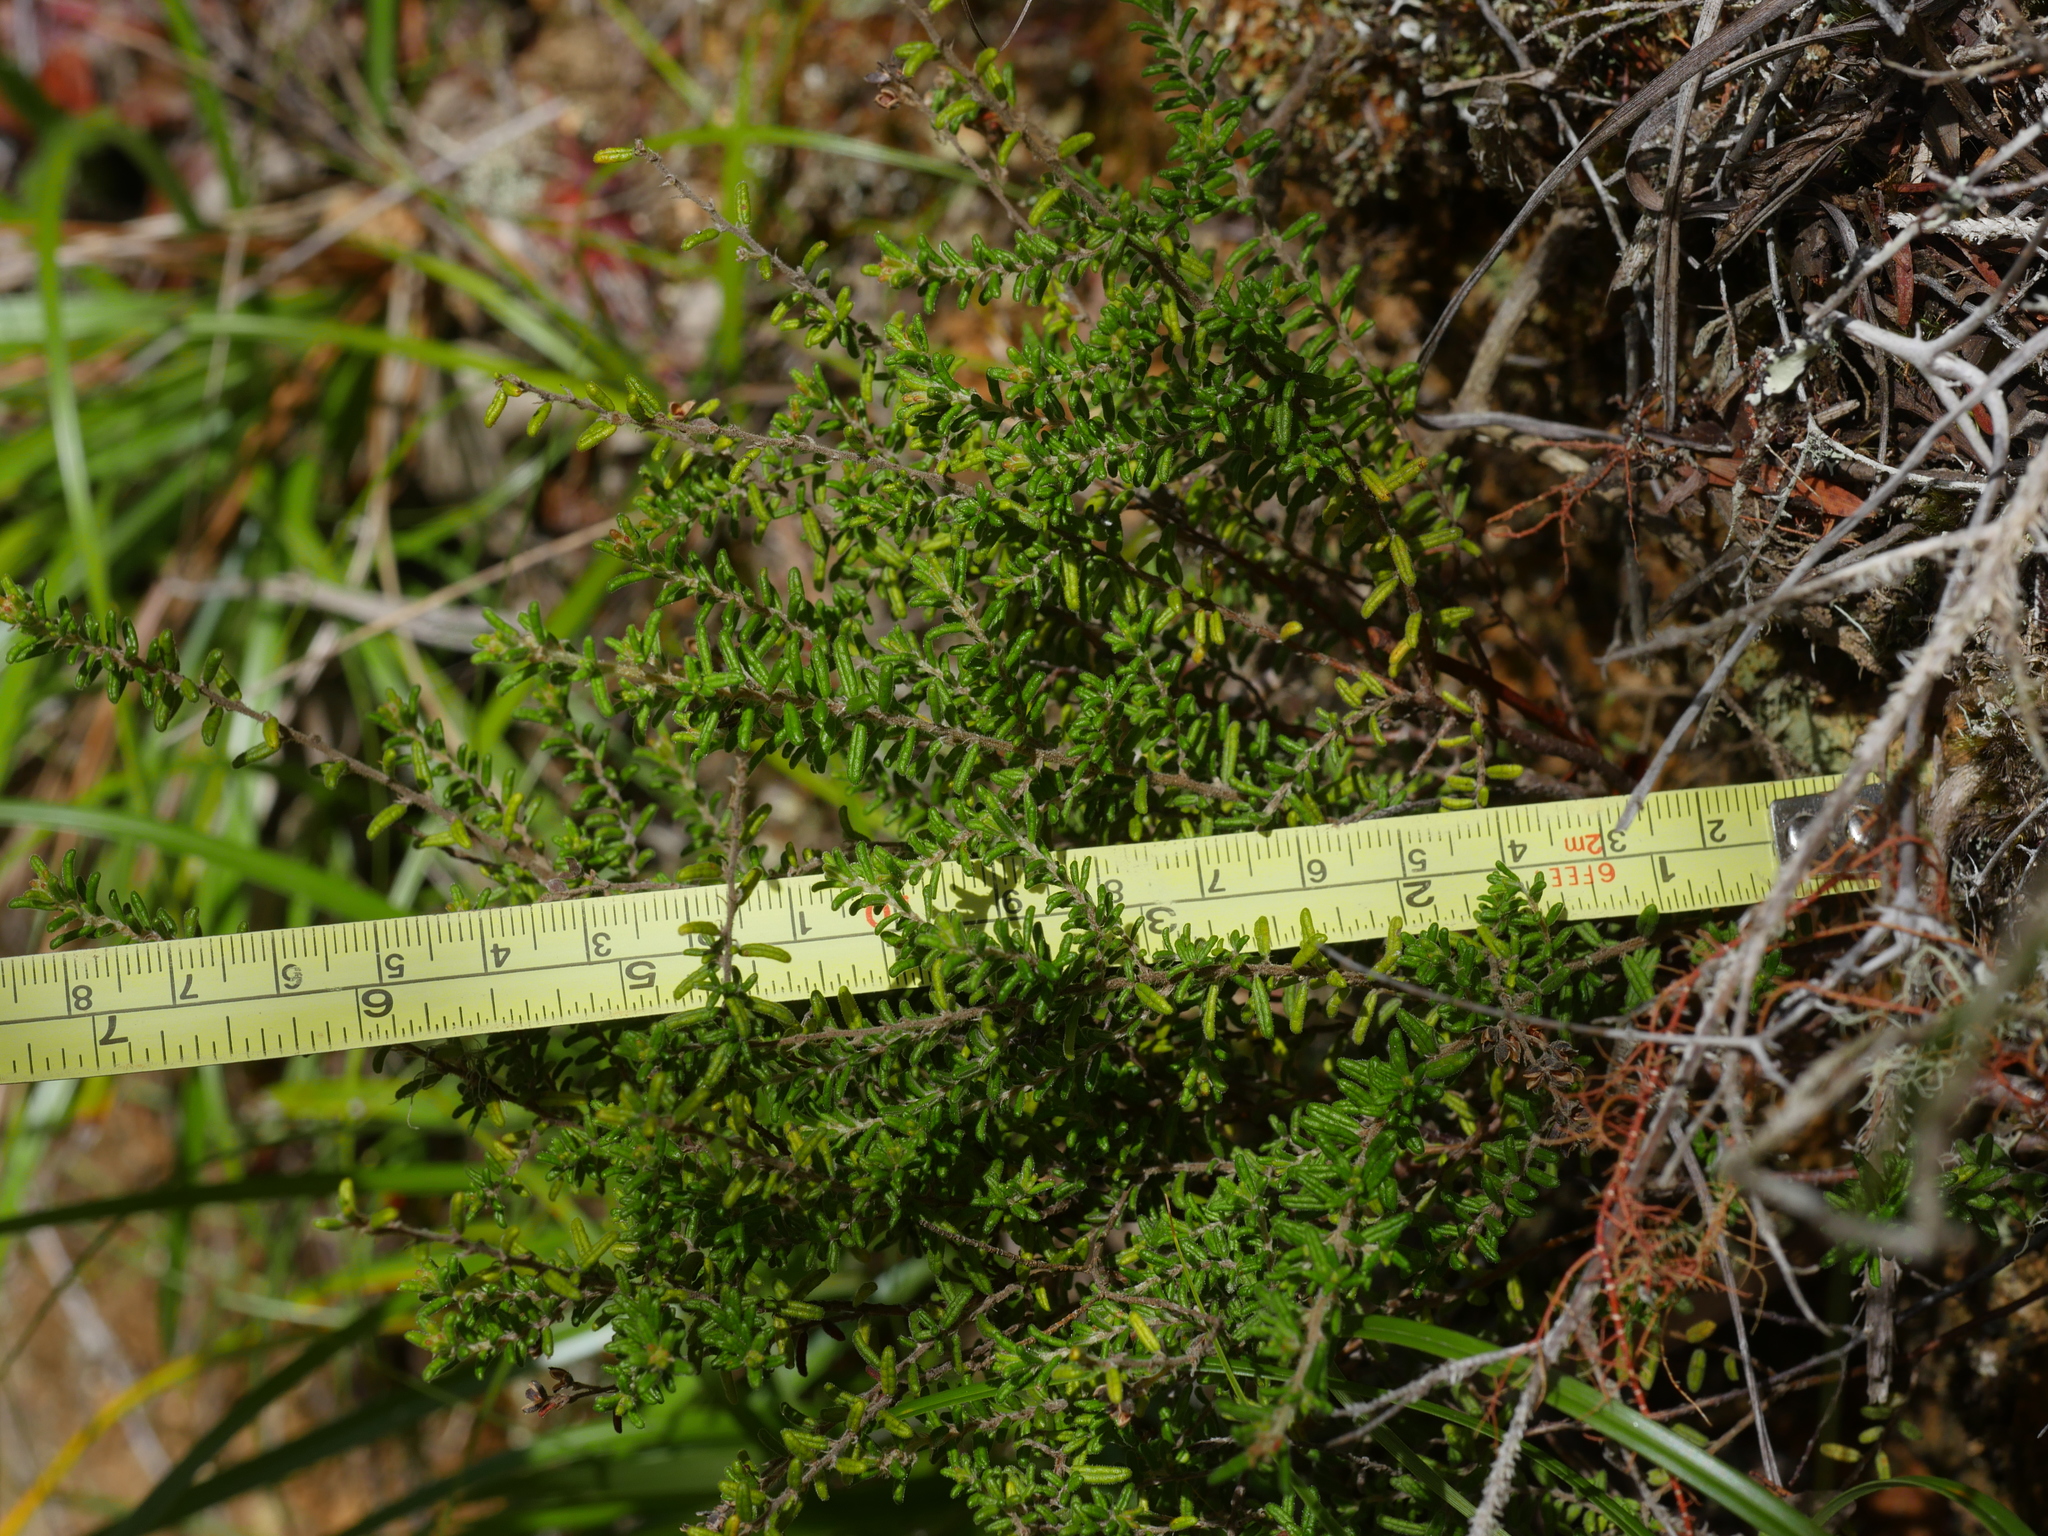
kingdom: Plantae
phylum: Tracheophyta
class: Magnoliopsida
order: Rosales
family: Rhamnaceae
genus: Pomaderris
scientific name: Pomaderris amoena
